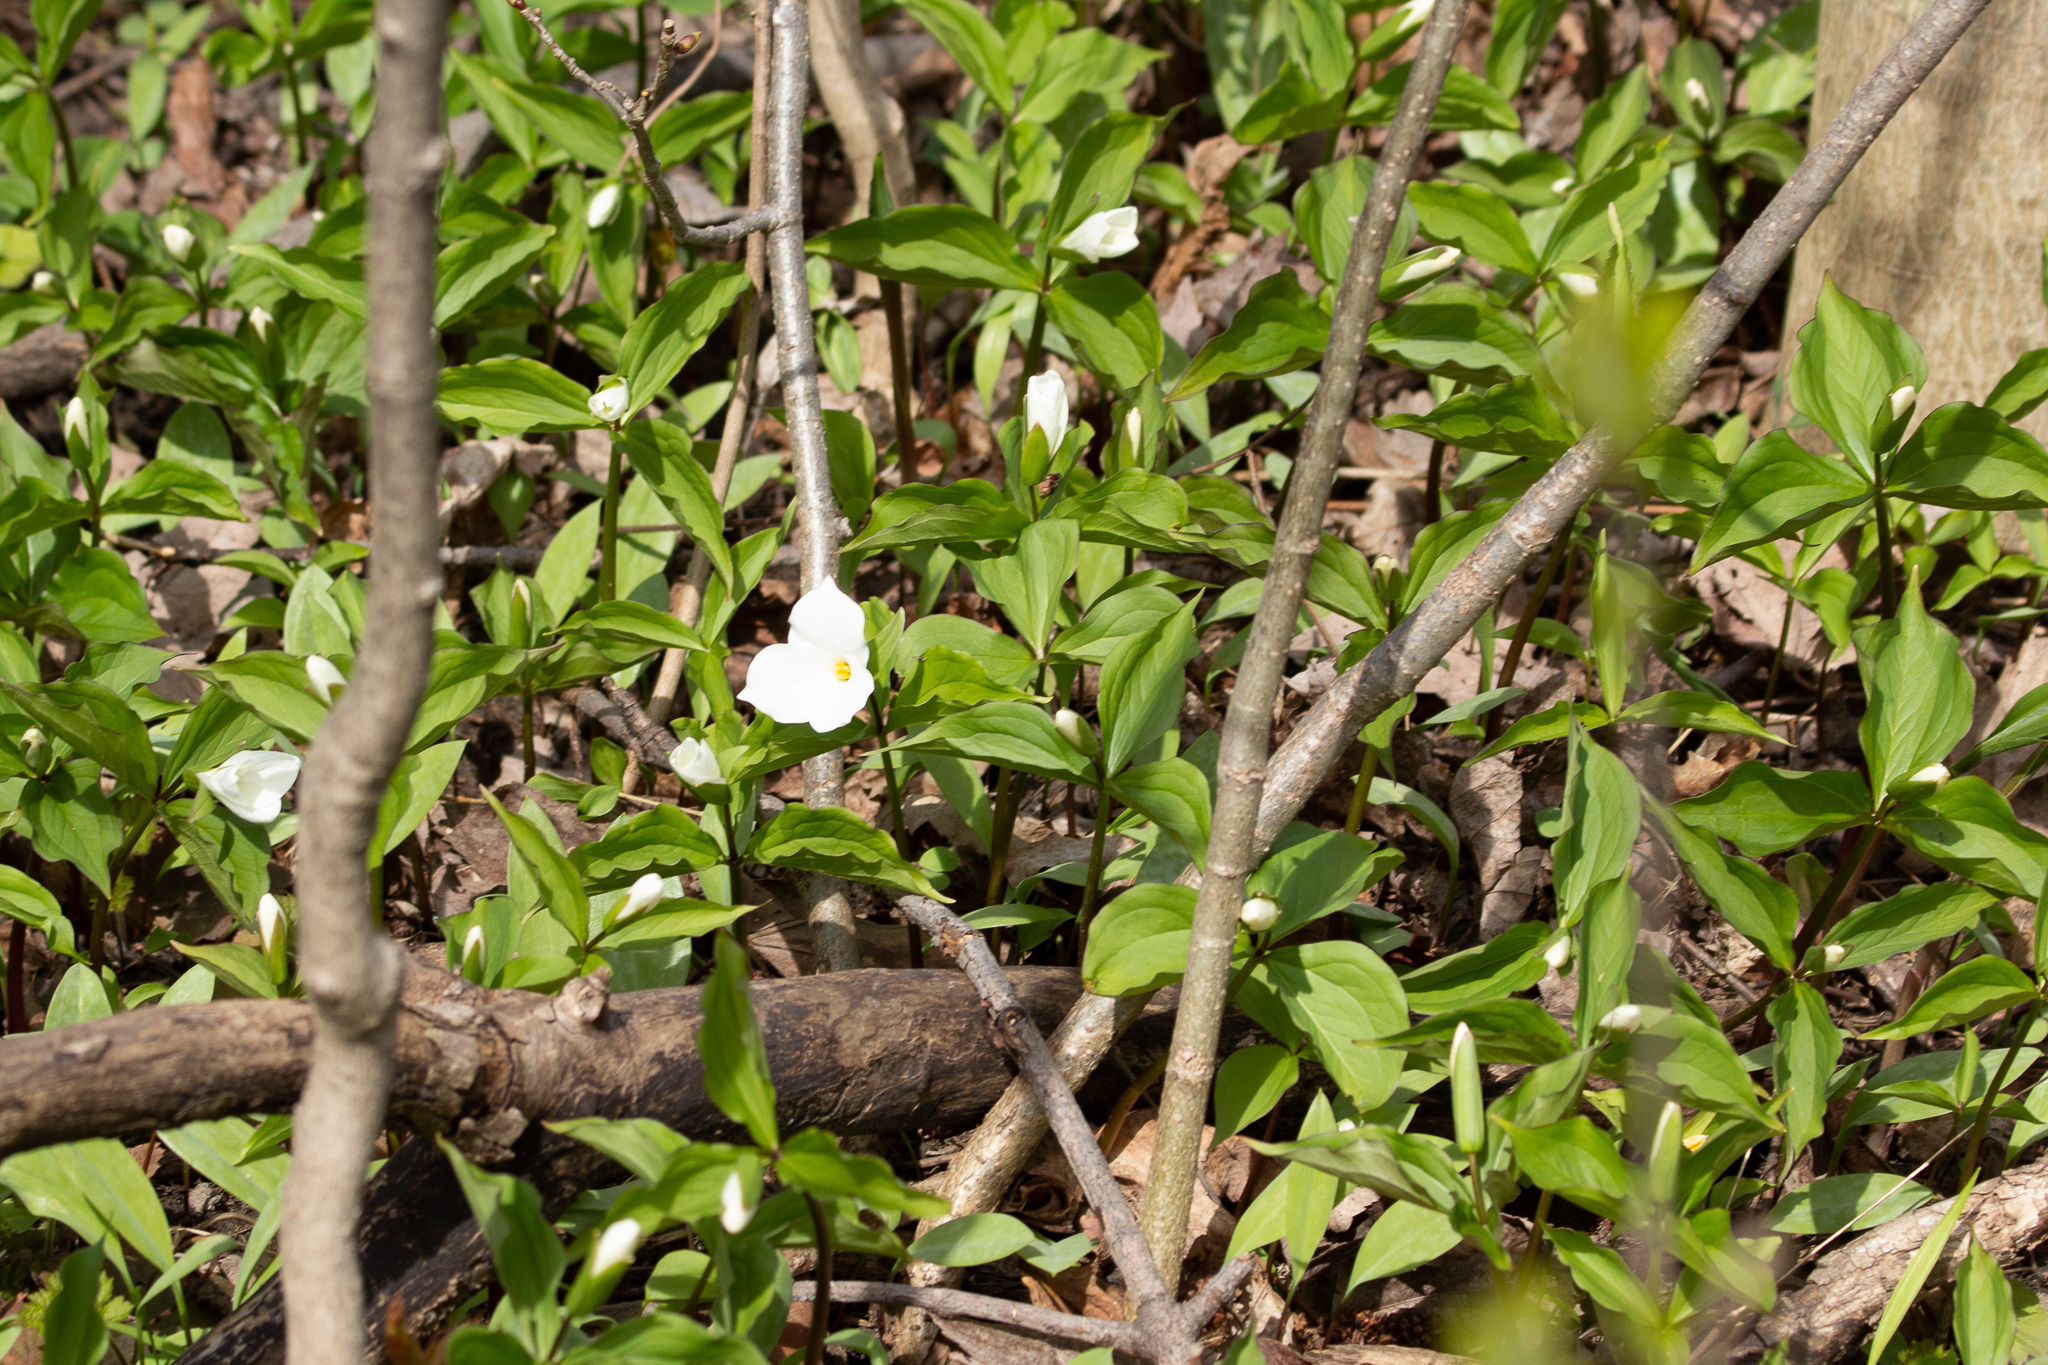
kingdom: Plantae
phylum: Tracheophyta
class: Liliopsida
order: Liliales
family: Melanthiaceae
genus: Trillium
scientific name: Trillium grandiflorum
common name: Great white trillium
